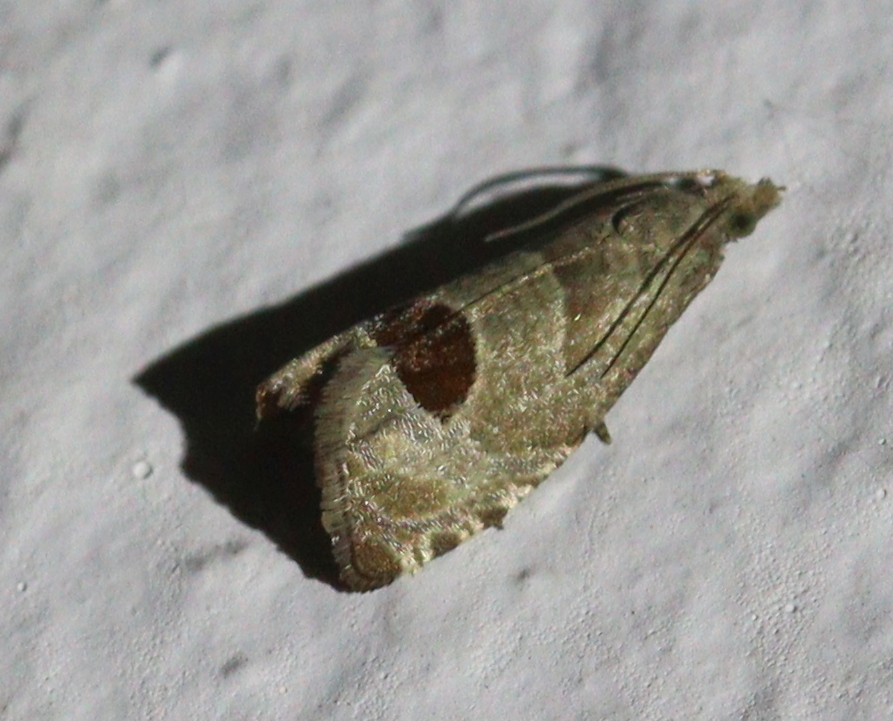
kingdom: Animalia
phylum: Arthropoda
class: Insecta
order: Lepidoptera
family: Tortricidae
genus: Notocelia
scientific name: Notocelia uddmanniana
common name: Bramble shoot moth
